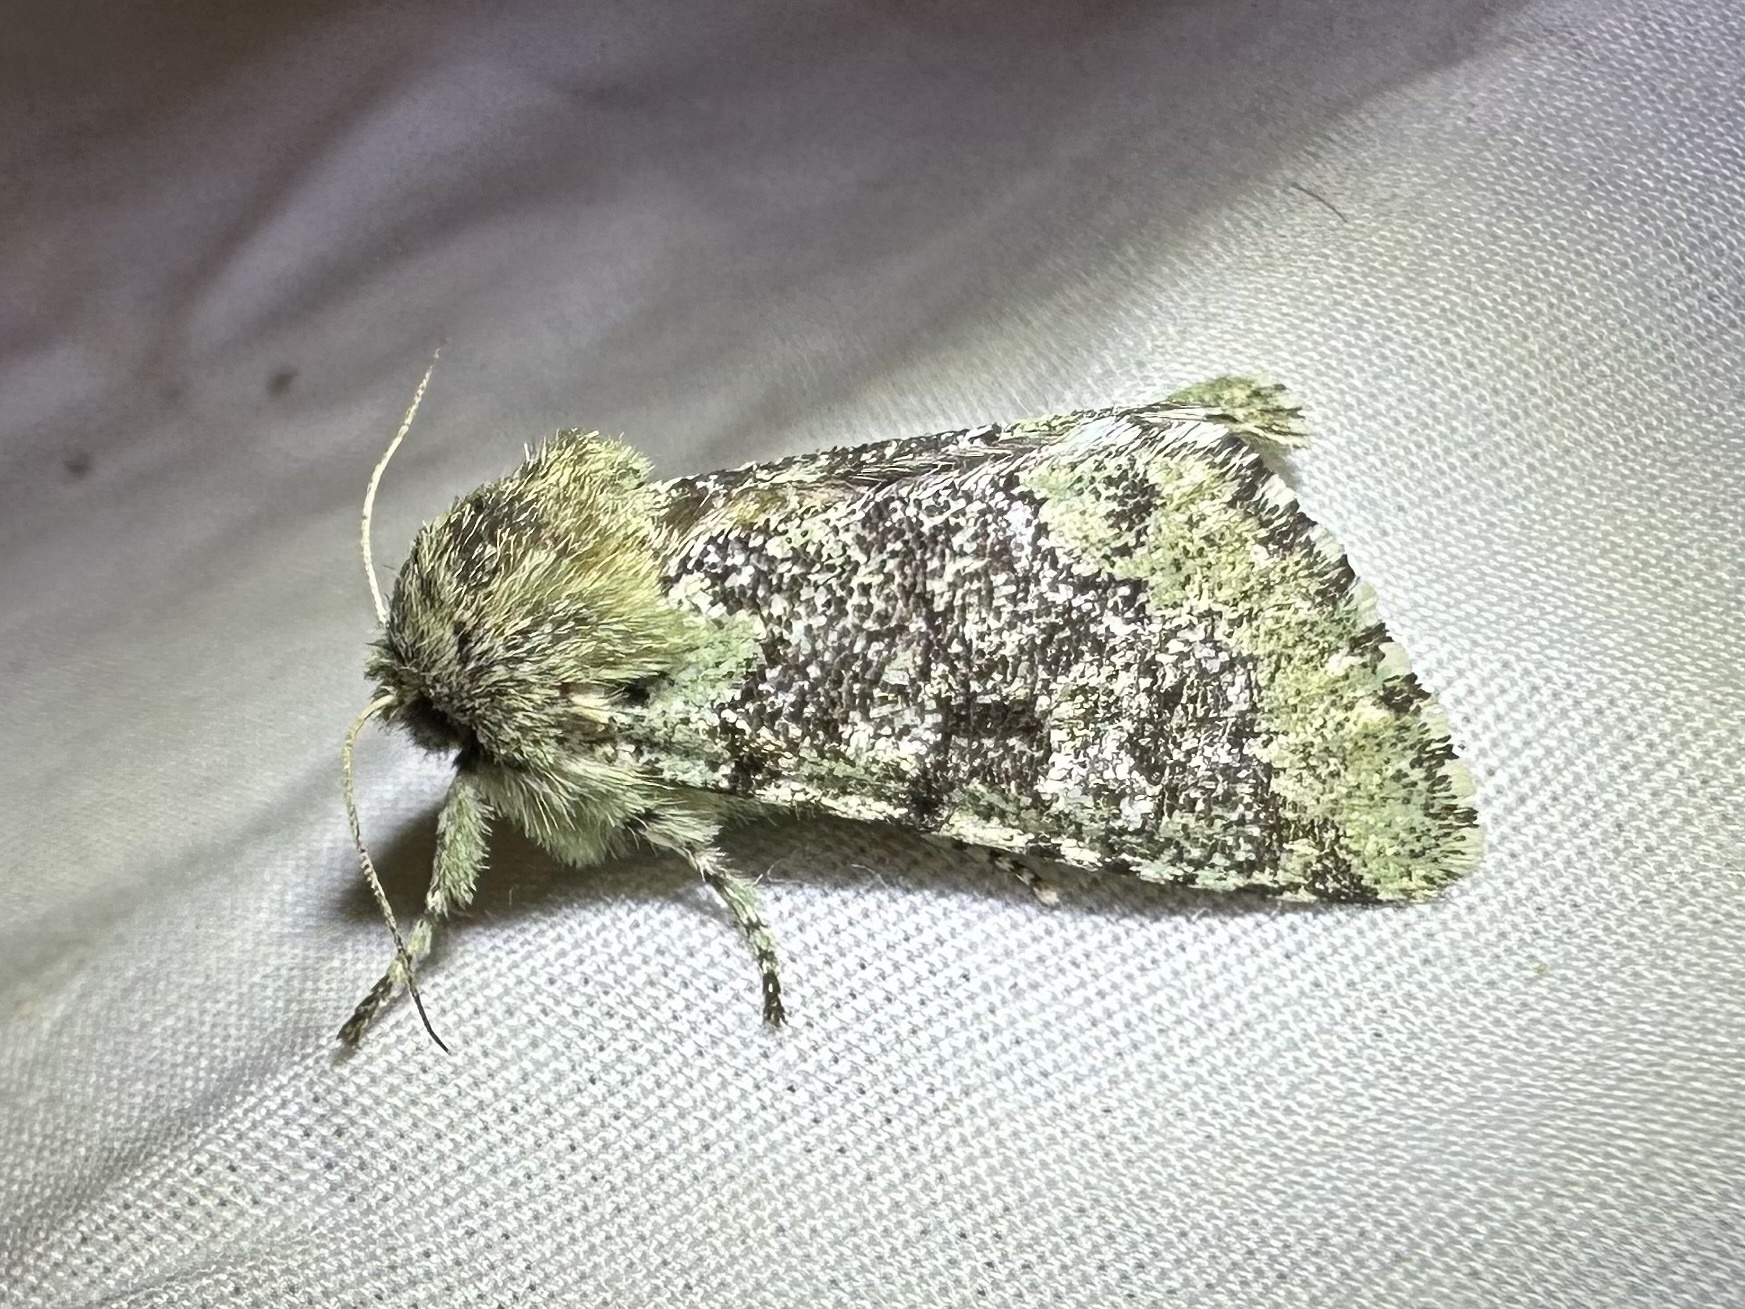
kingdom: Animalia
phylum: Arthropoda
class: Insecta
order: Lepidoptera
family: Noctuidae
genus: Feralia
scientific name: Feralia major
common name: Major sallow
